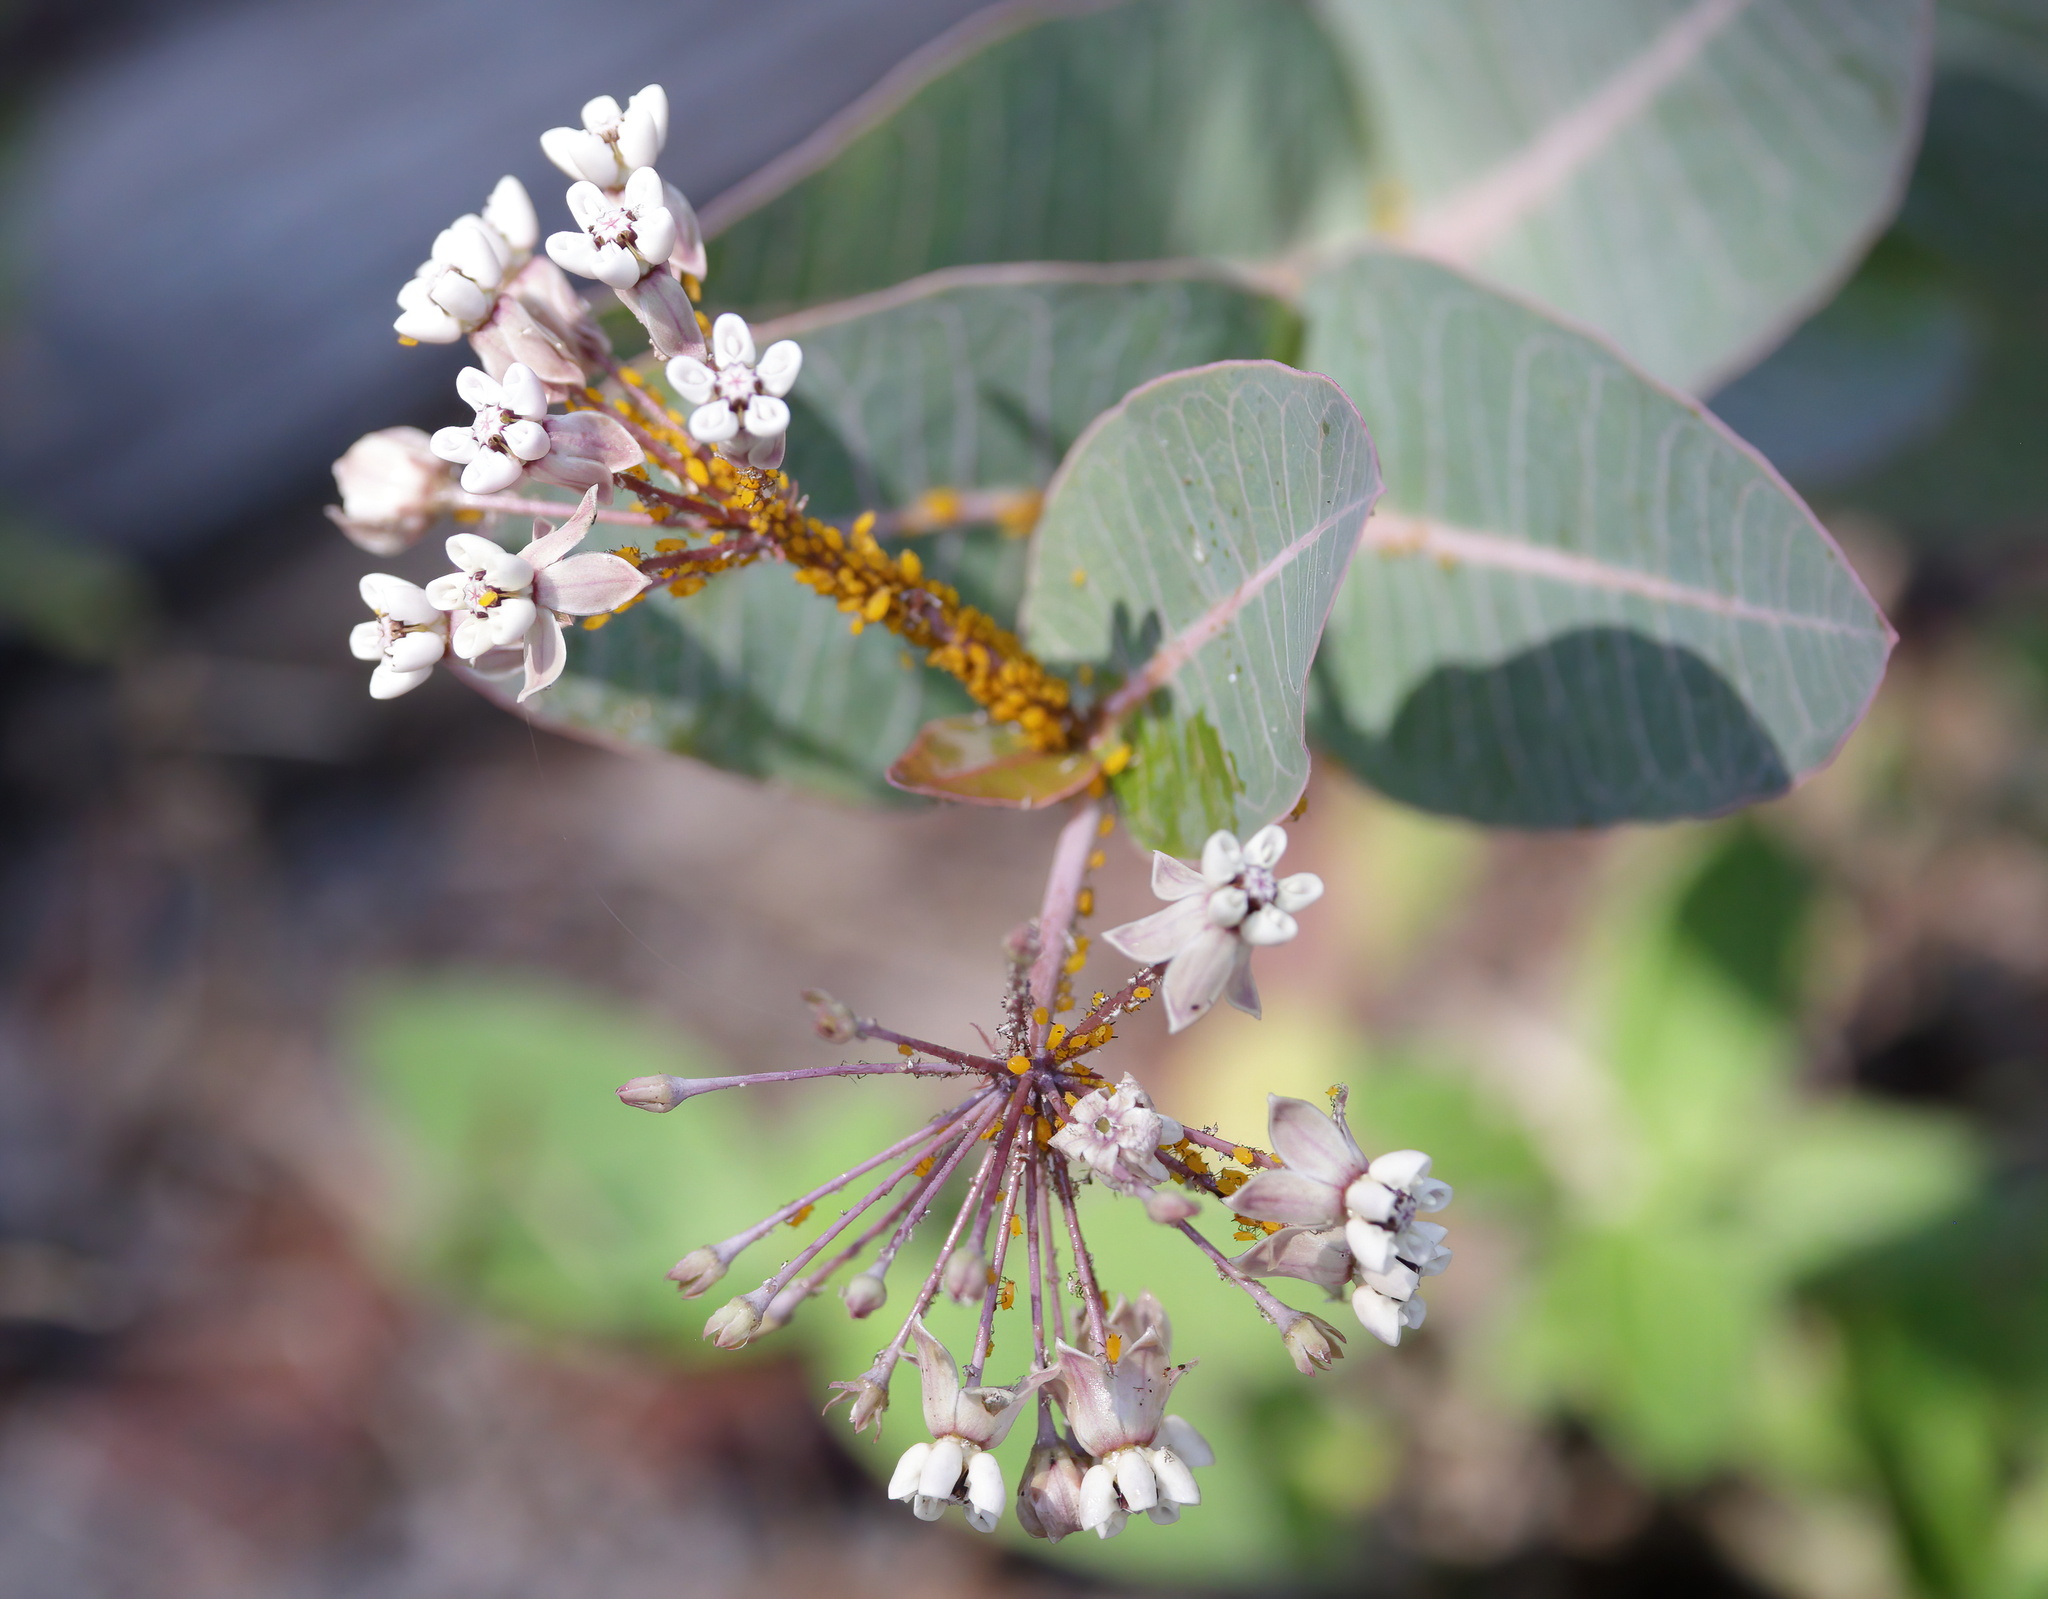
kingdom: Animalia
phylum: Arthropoda
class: Insecta
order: Hemiptera
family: Aphididae
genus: Aphis
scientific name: Aphis nerii
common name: Oleander aphid
